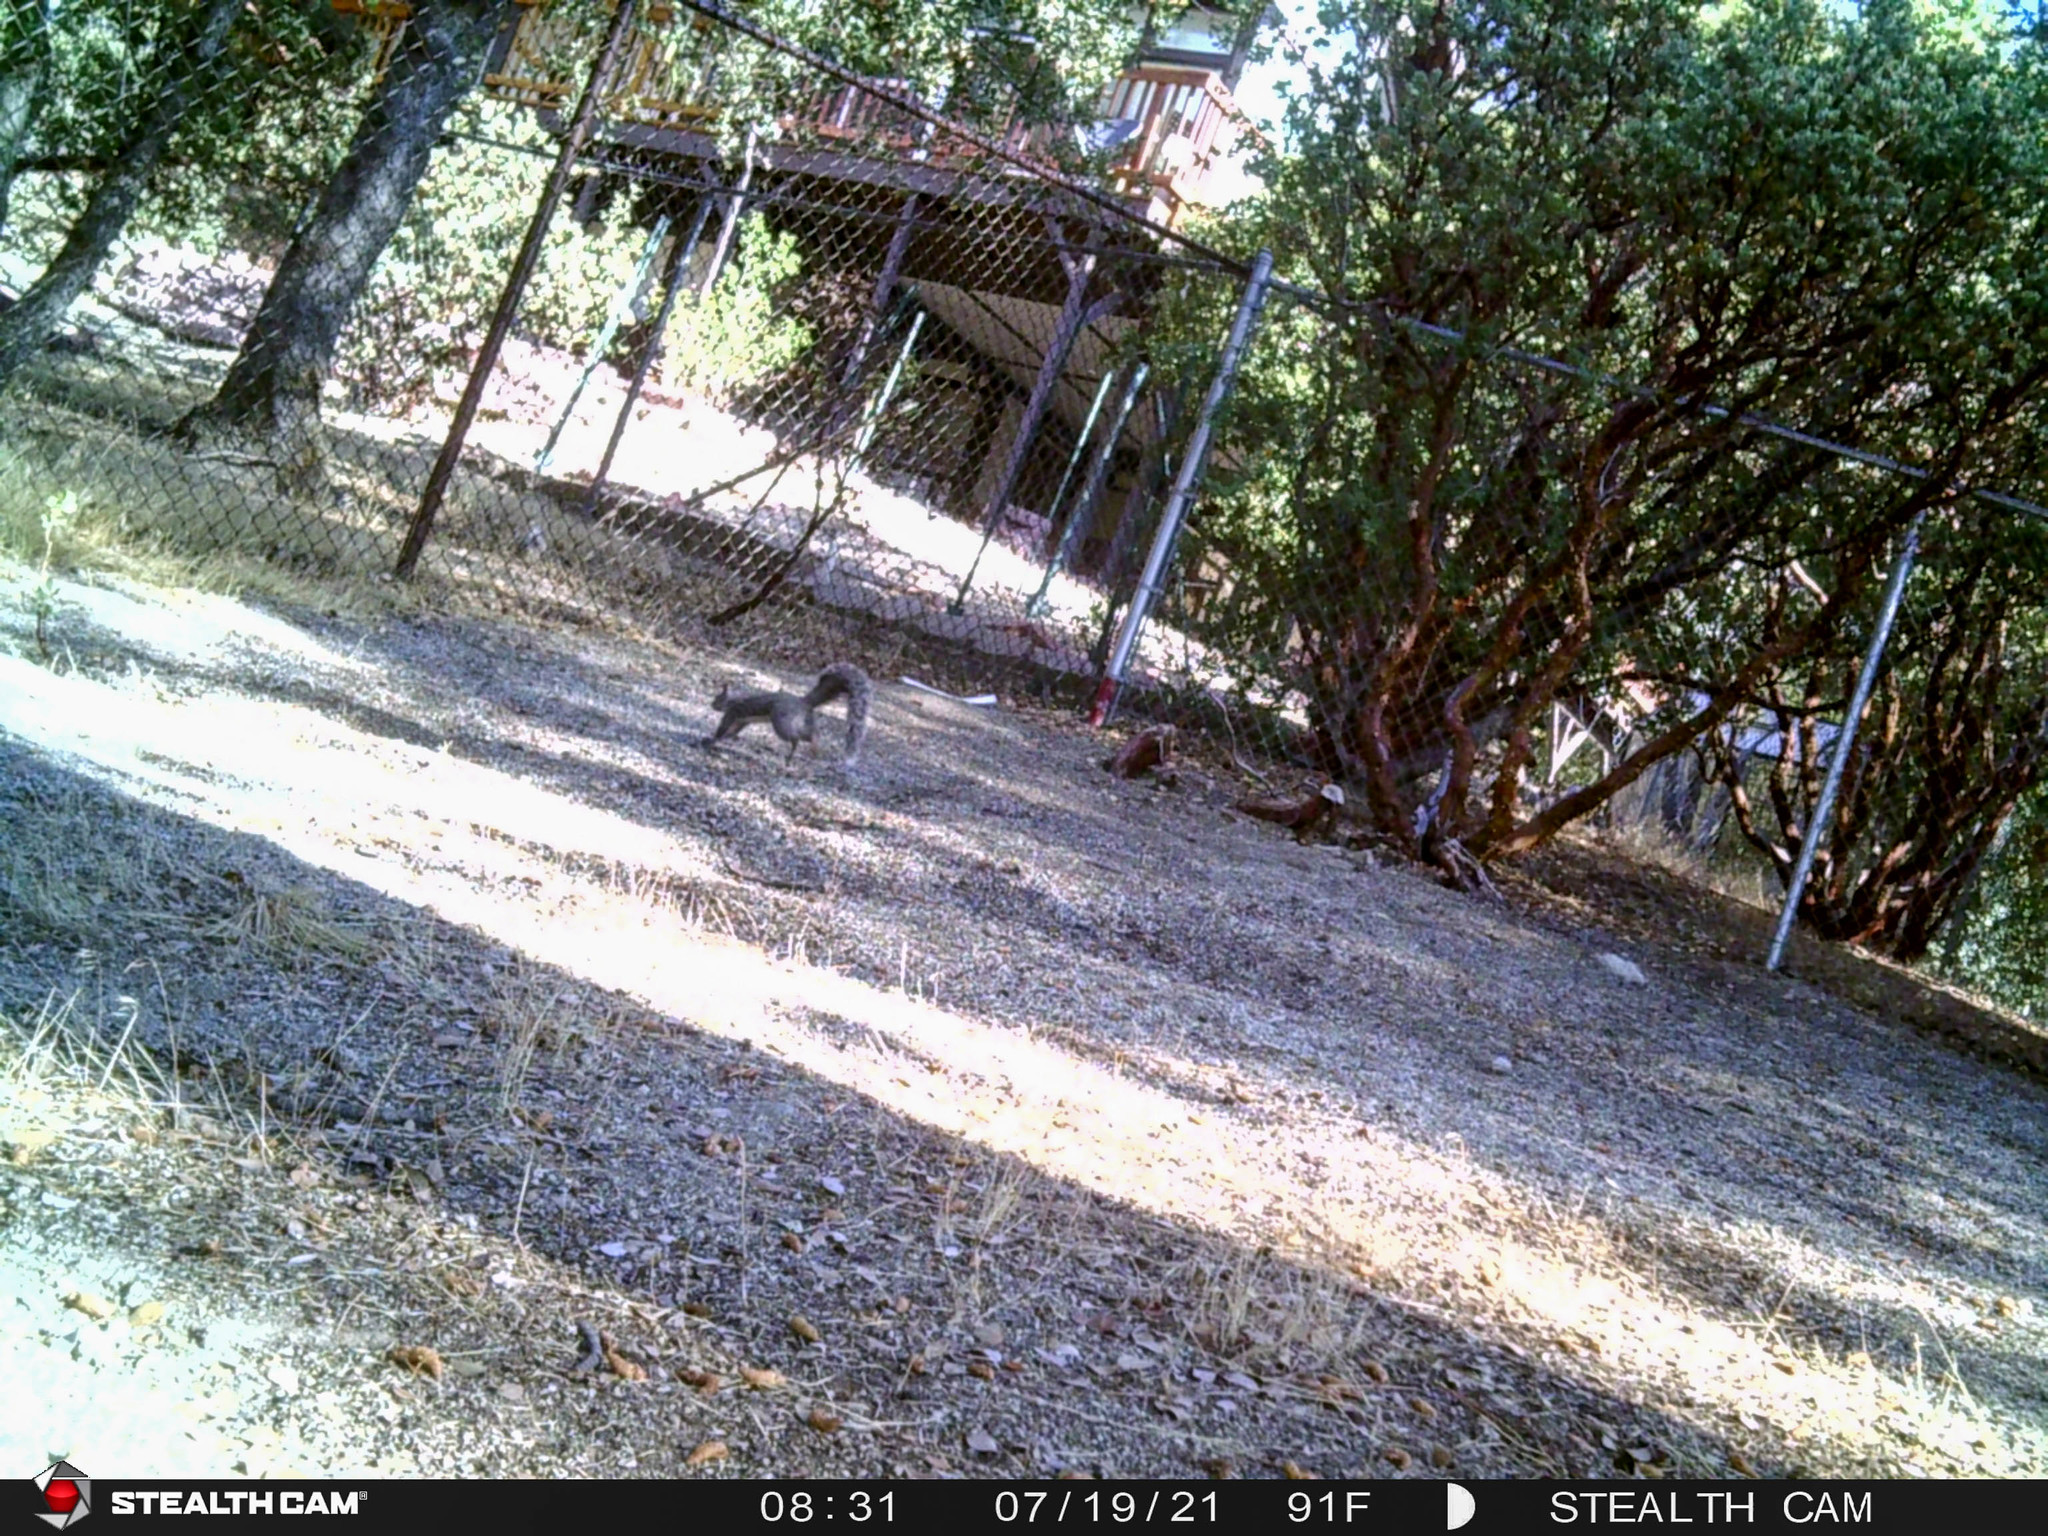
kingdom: Animalia
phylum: Chordata
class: Mammalia
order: Rodentia
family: Sciuridae
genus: Sciurus
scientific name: Sciurus griseus
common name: Western gray squirrel
